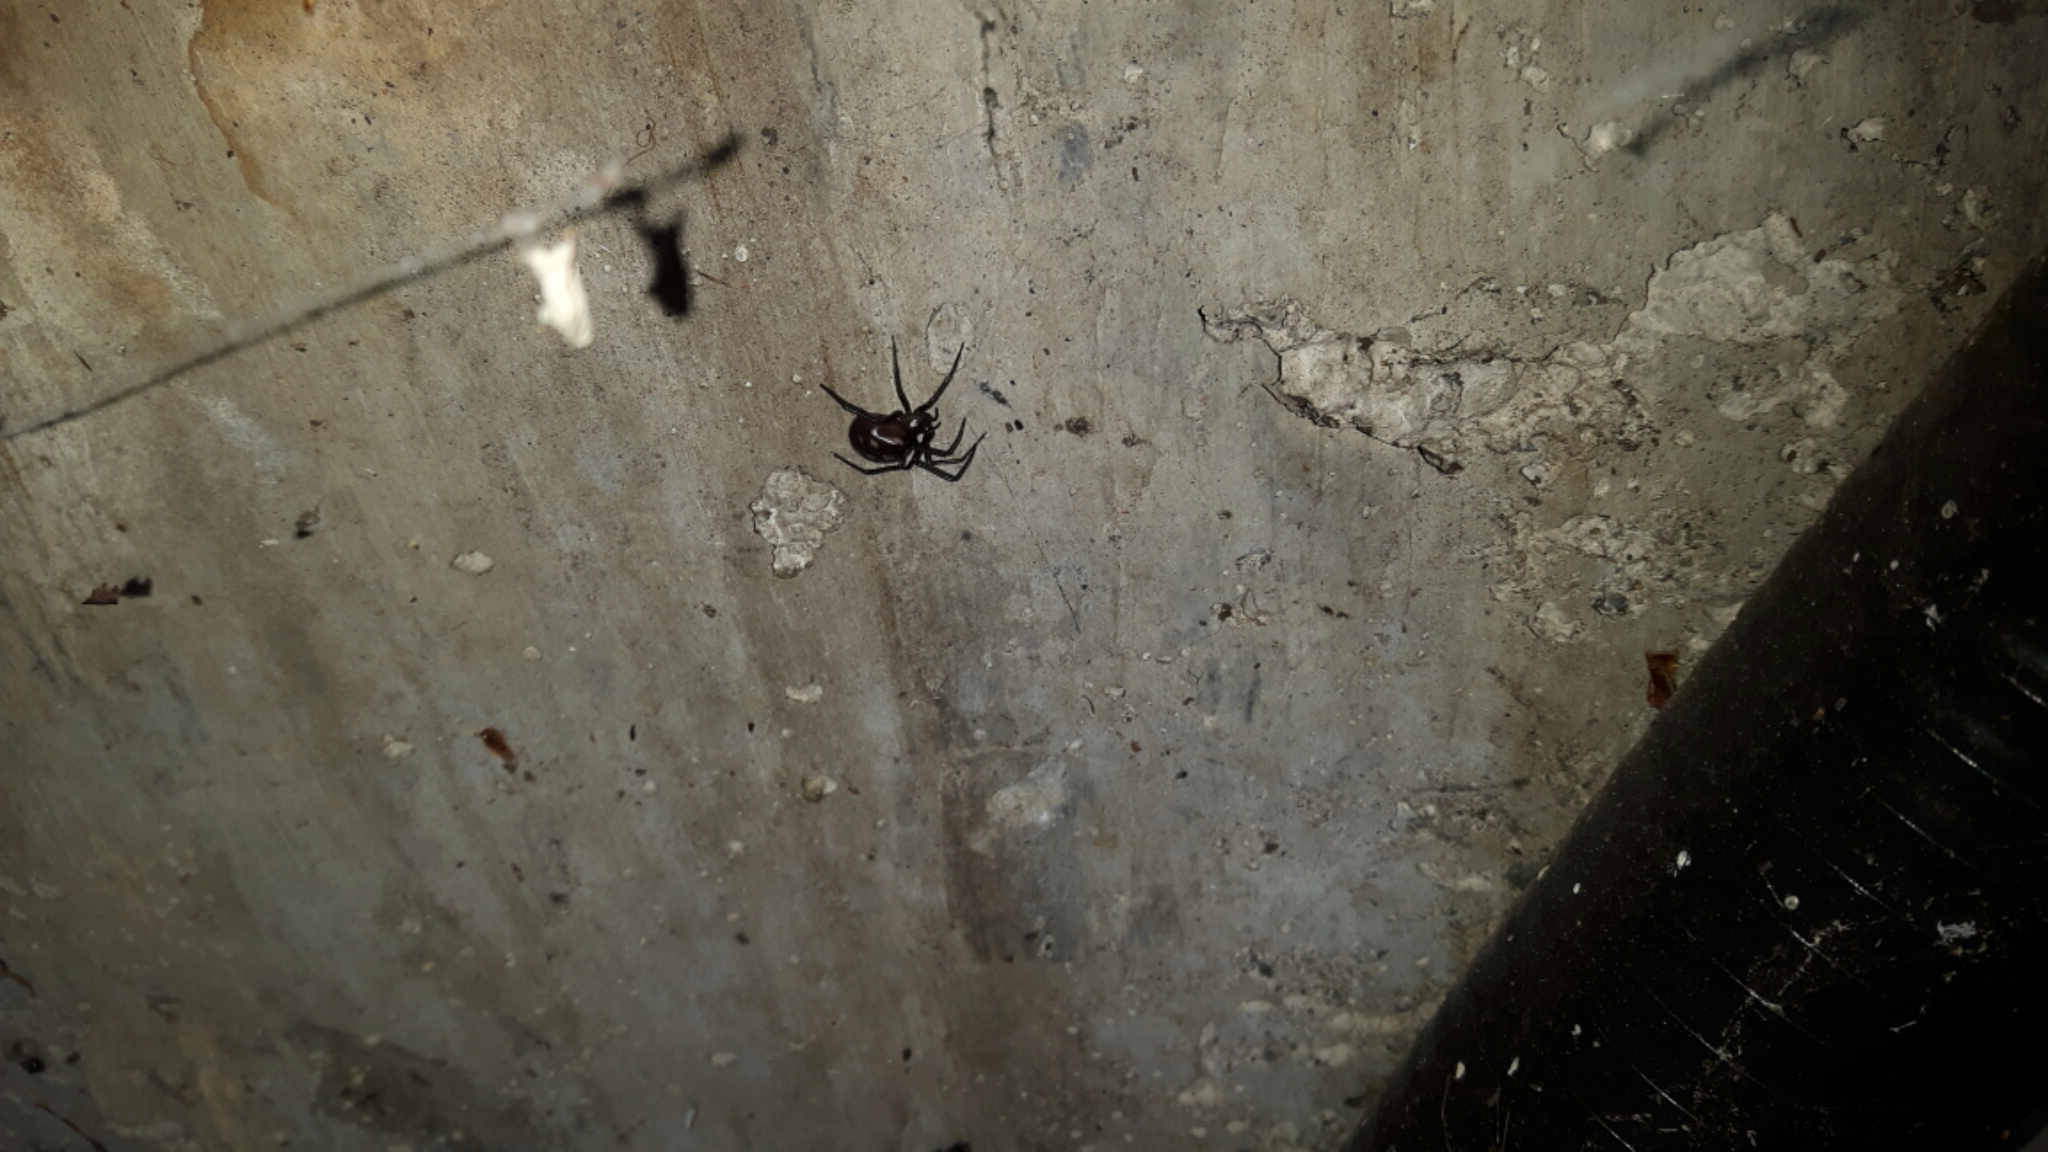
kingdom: Animalia
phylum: Arthropoda
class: Arachnida
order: Araneae
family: Theridiidae
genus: Steatoda
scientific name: Steatoda grossa
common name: False black widow
